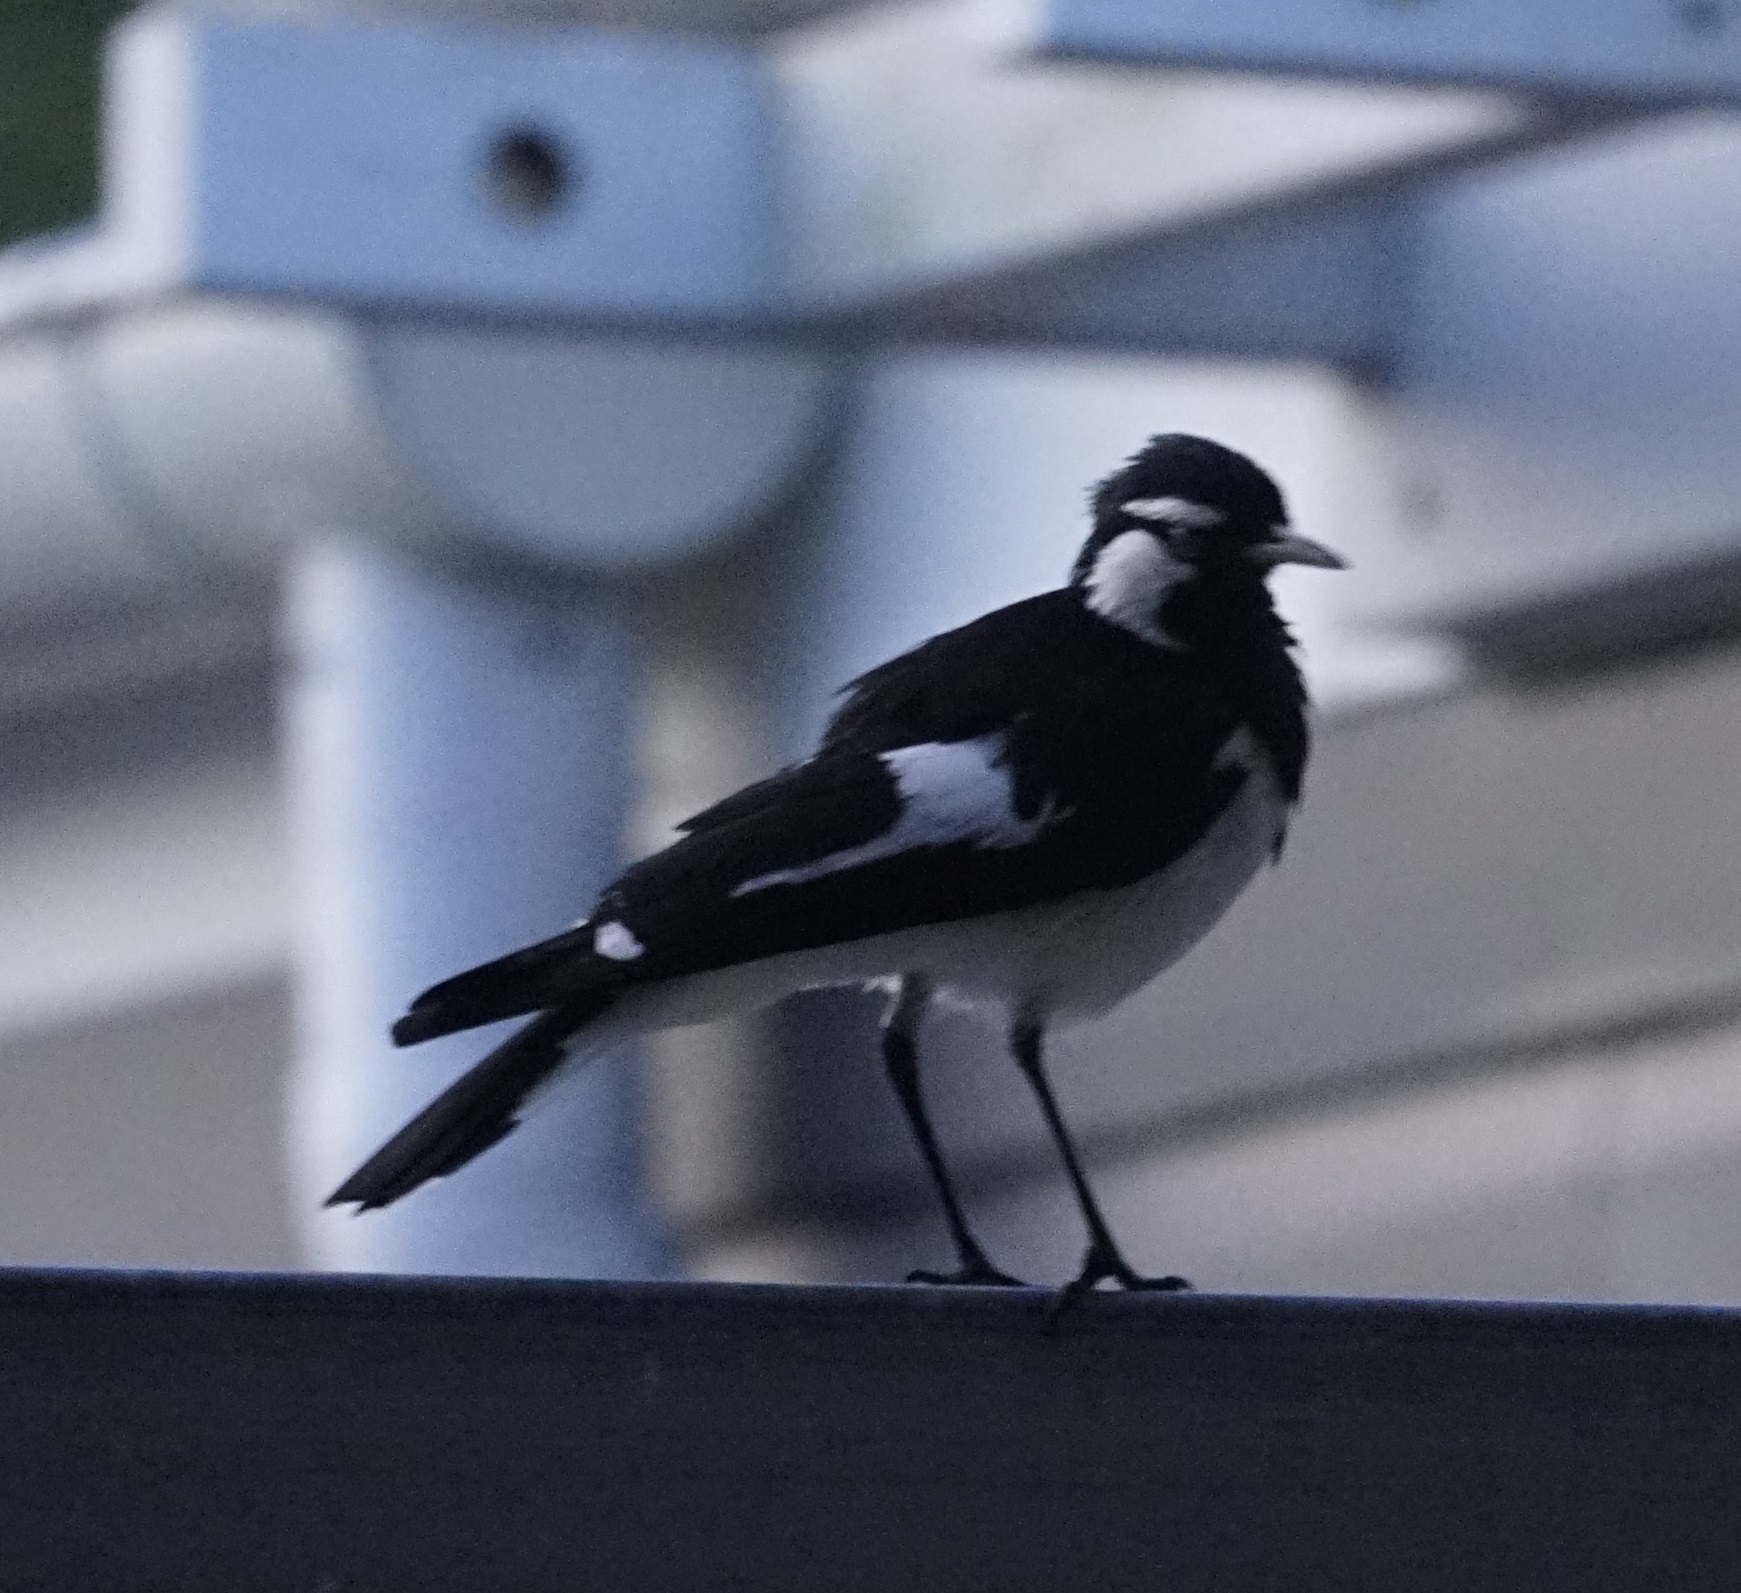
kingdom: Animalia
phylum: Chordata
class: Aves
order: Passeriformes
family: Monarchidae
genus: Grallina
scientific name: Grallina cyanoleuca
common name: Magpie-lark
